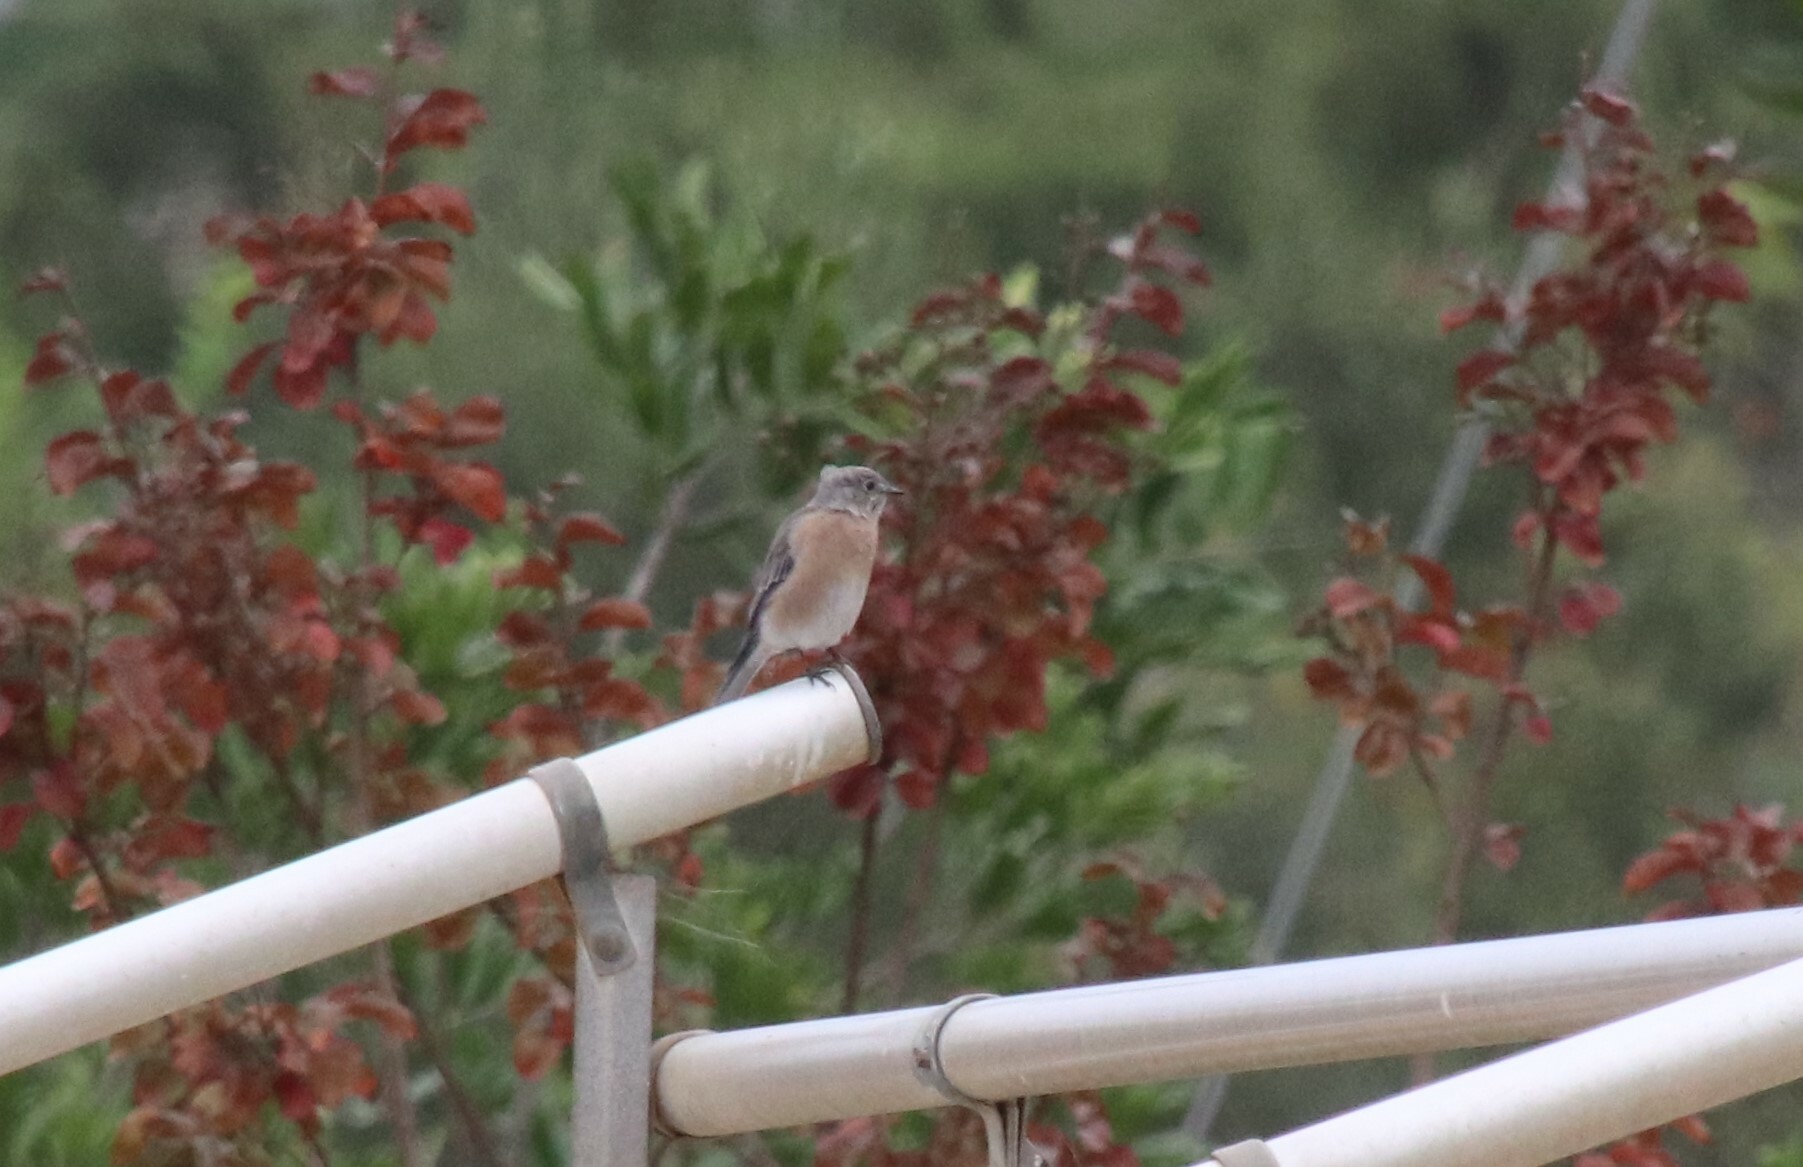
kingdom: Animalia
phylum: Chordata
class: Aves
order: Passeriformes
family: Turdidae
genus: Sialia
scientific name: Sialia mexicana
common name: Western bluebird
